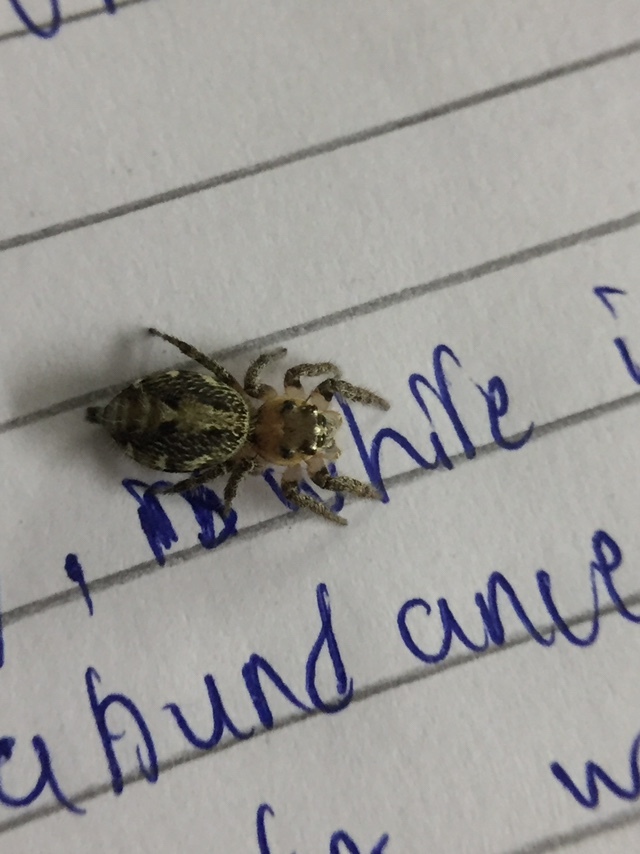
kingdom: Animalia
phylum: Arthropoda
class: Arachnida
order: Araneae
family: Salticidae
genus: Hyllus
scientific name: Hyllus semicupreus
